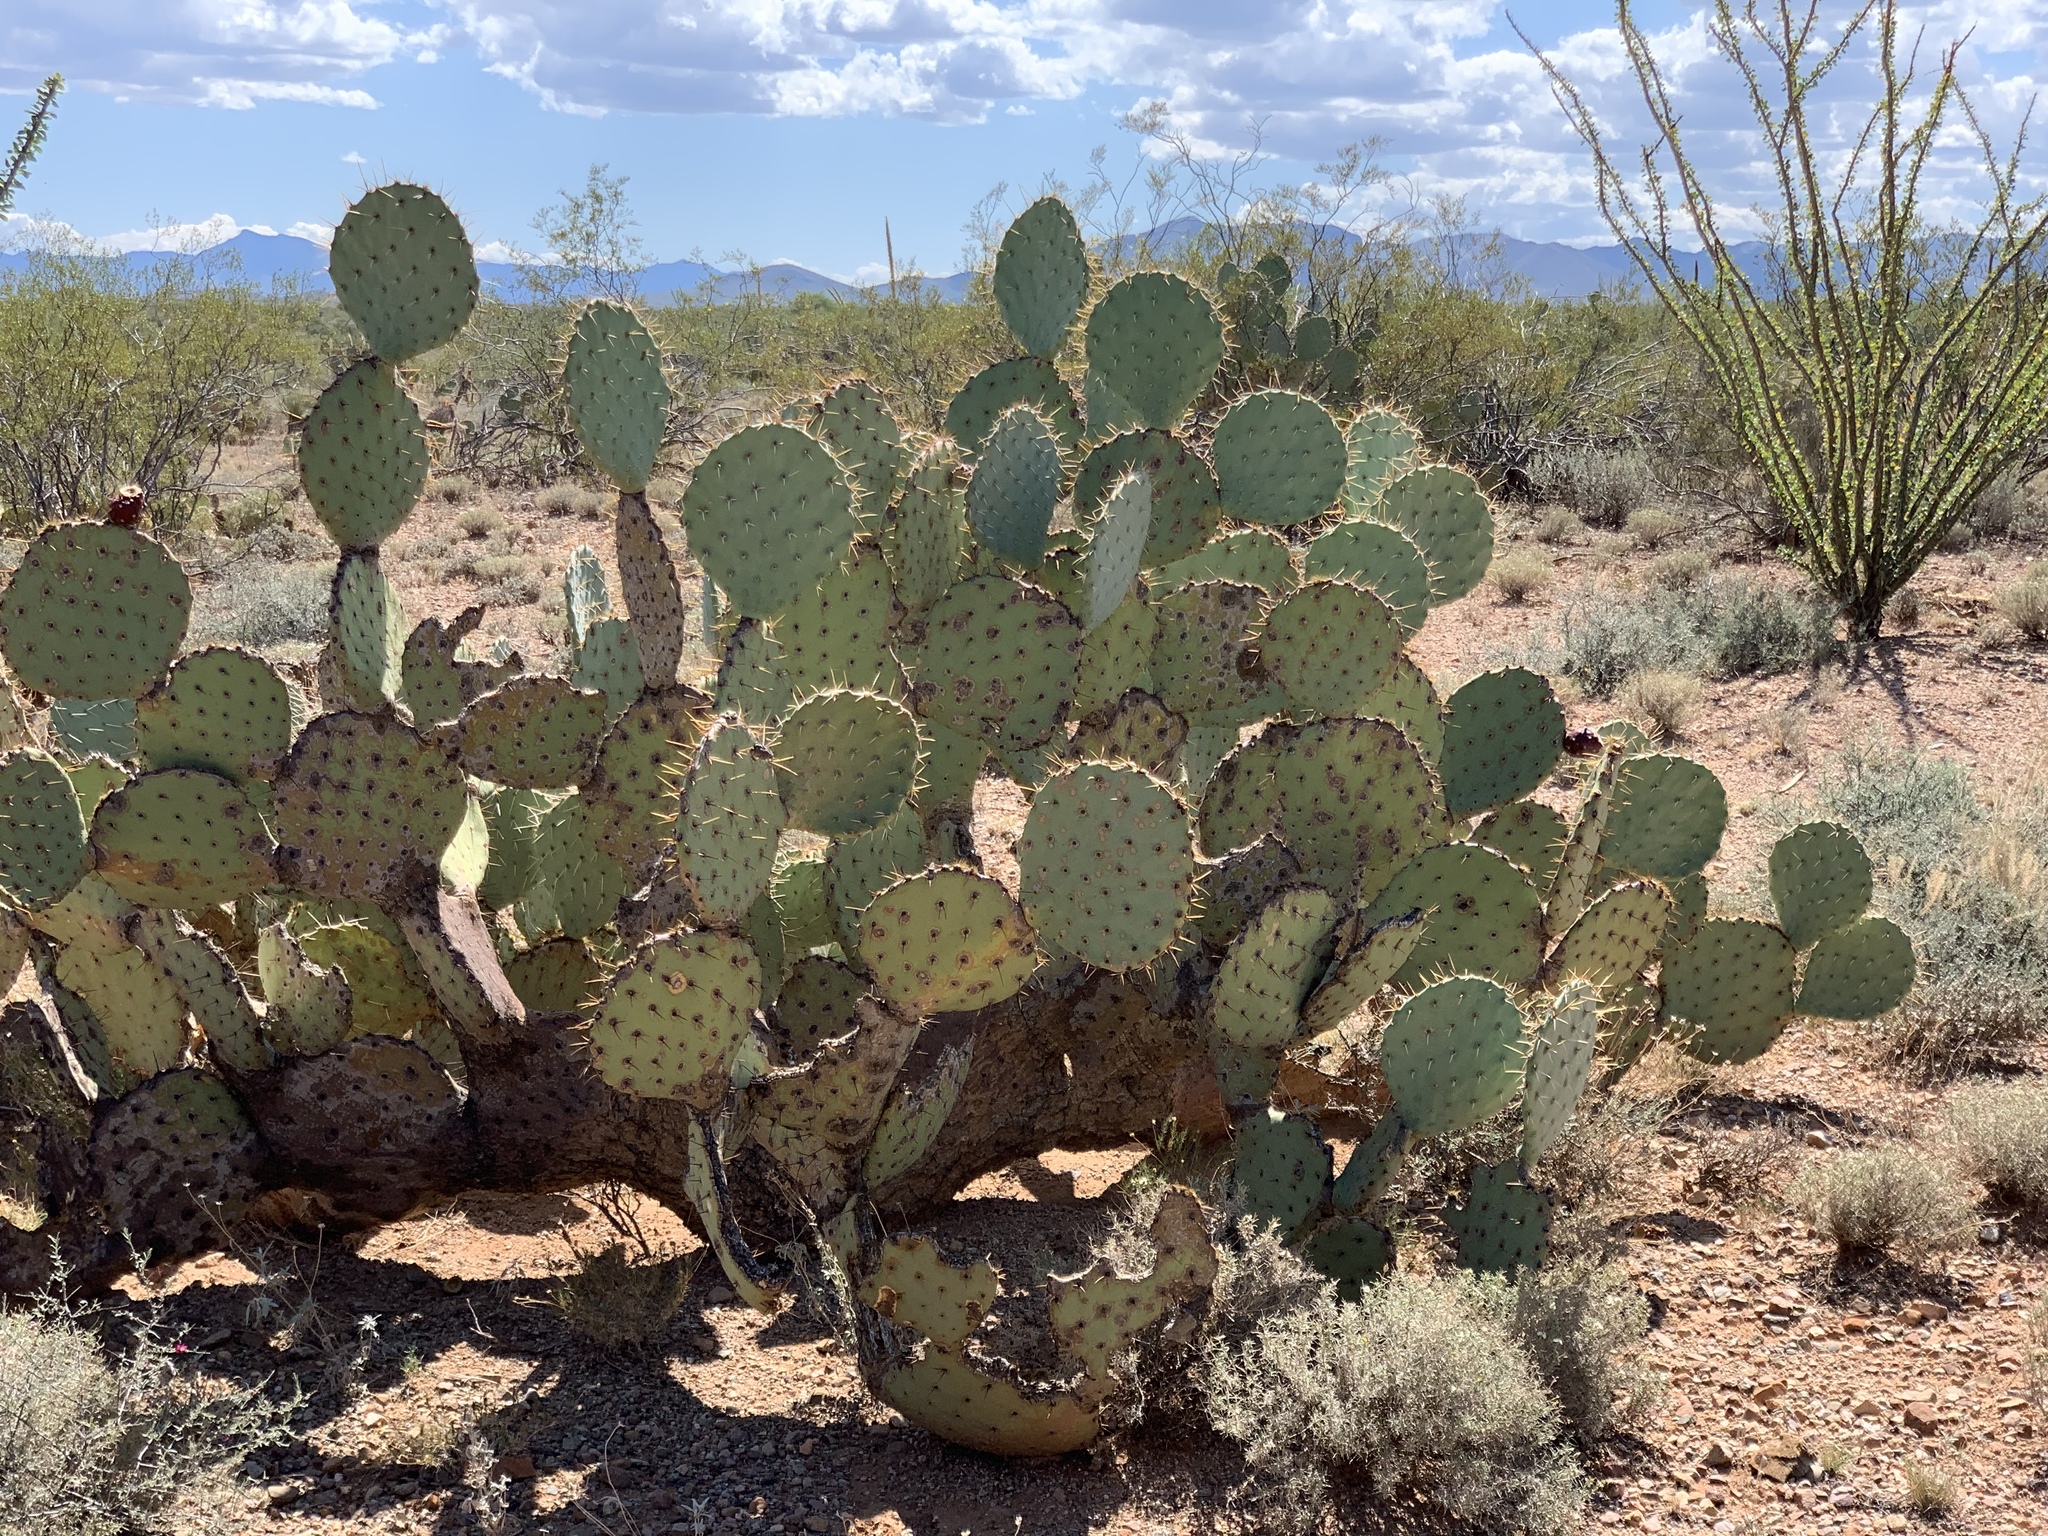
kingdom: Plantae
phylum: Tracheophyta
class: Magnoliopsida
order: Caryophyllales
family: Cactaceae
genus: Opuntia
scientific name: Opuntia engelmannii
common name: Cactus-apple
